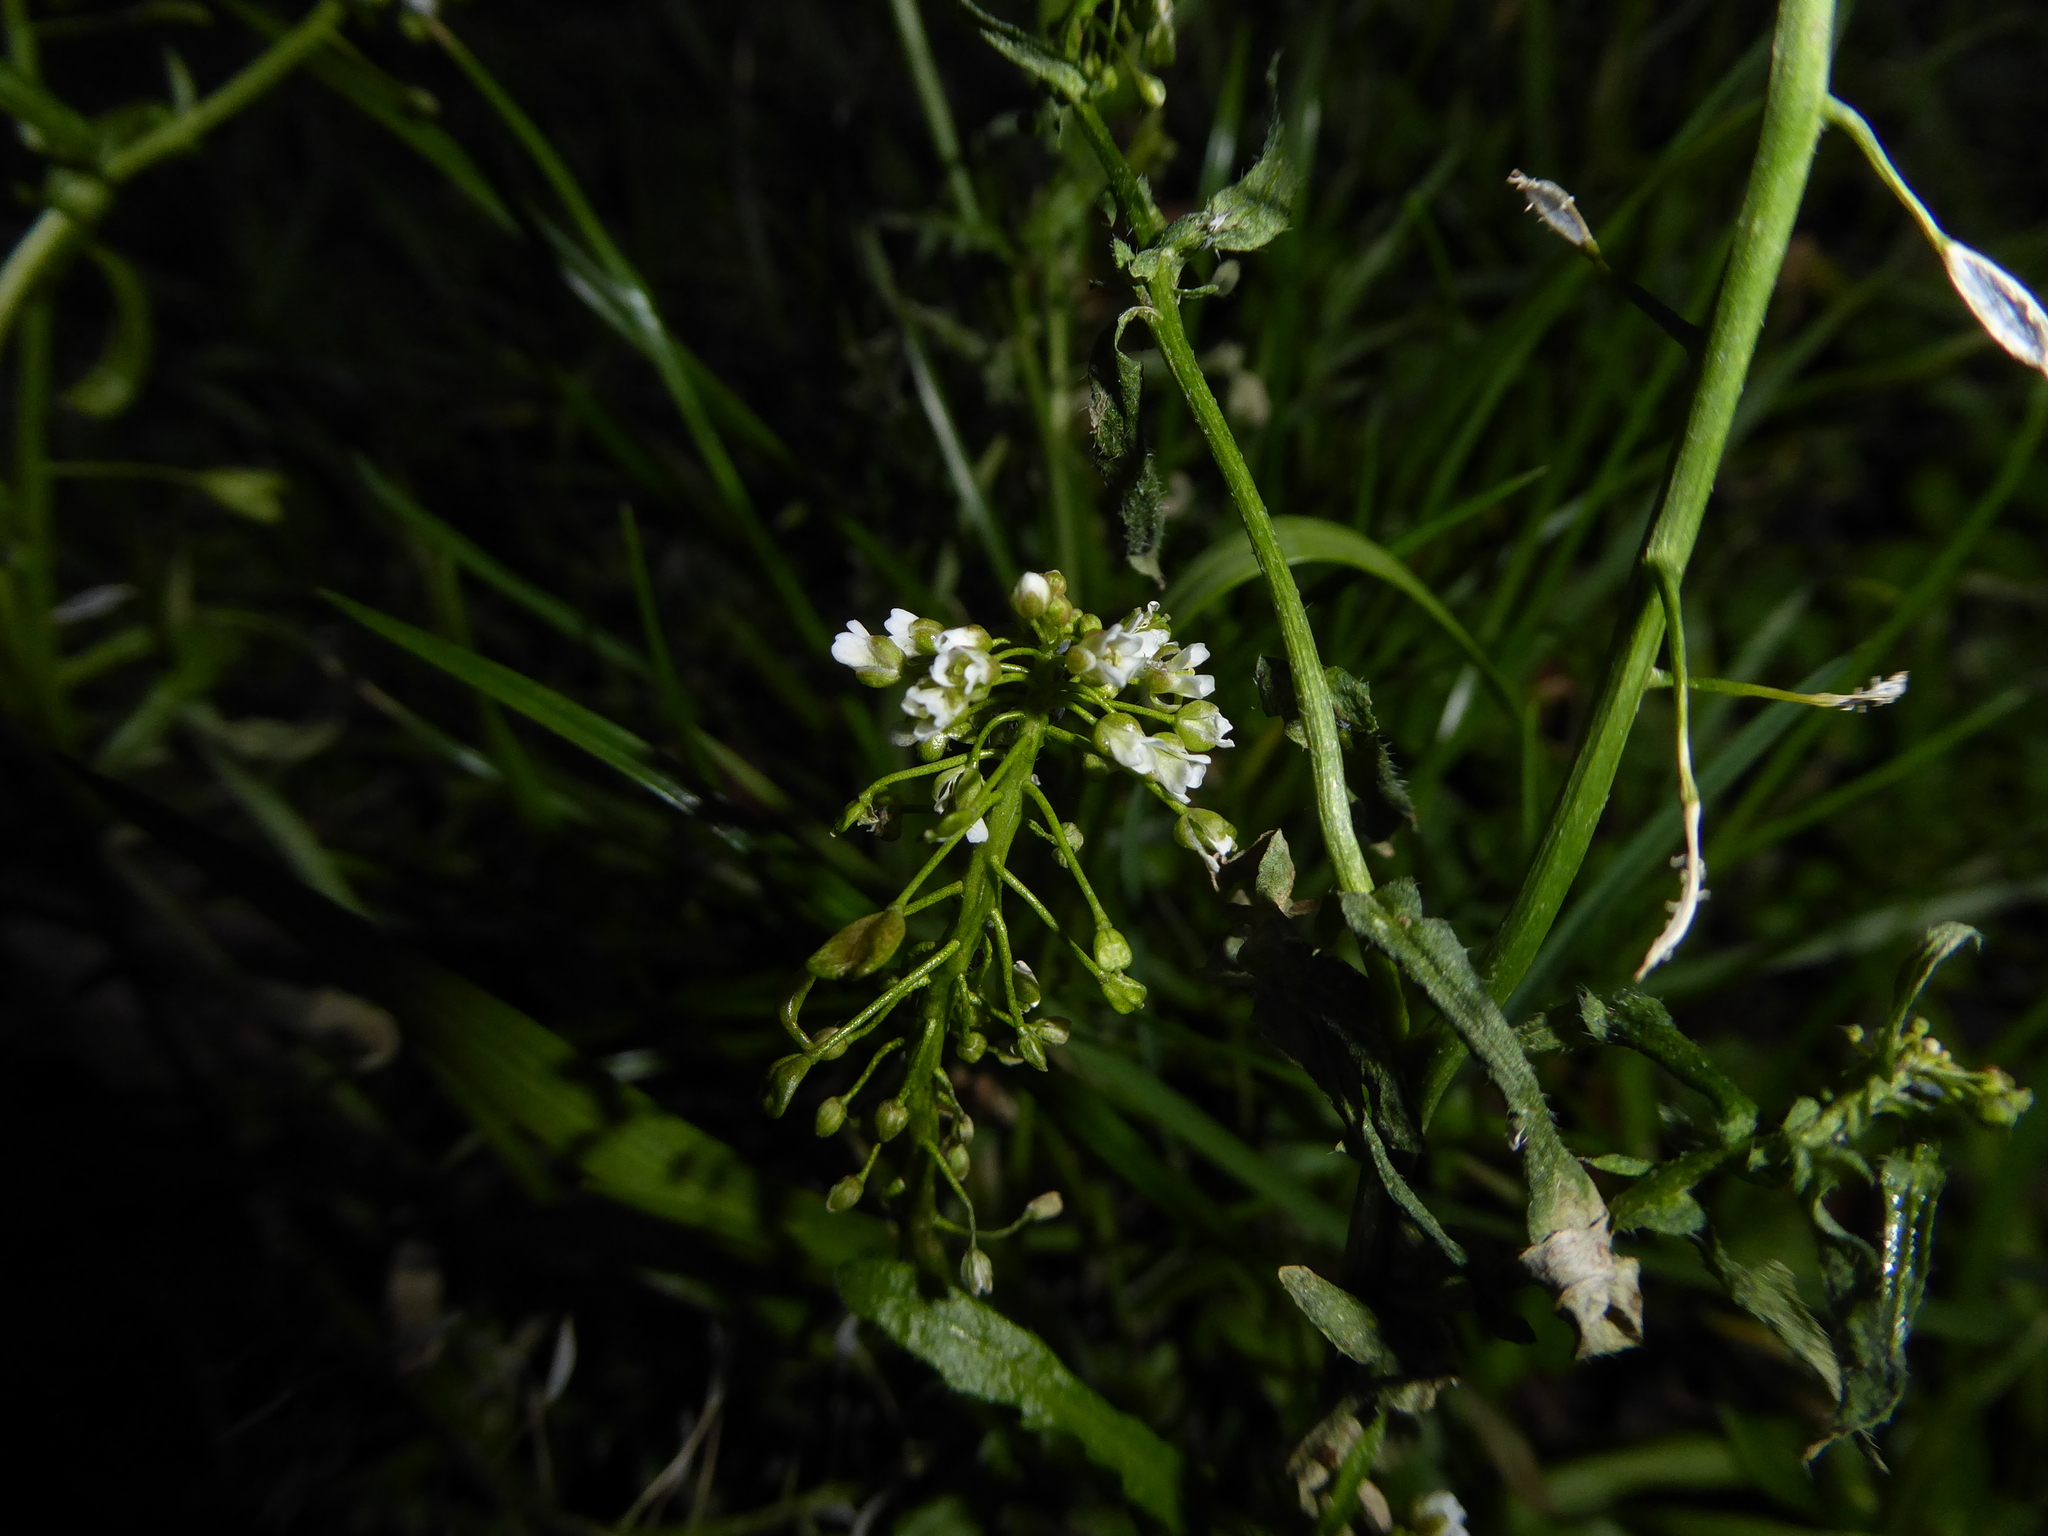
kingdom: Plantae
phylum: Tracheophyta
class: Magnoliopsida
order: Brassicales
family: Brassicaceae
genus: Capsella
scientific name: Capsella bursa-pastoris
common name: Shepherd's purse
